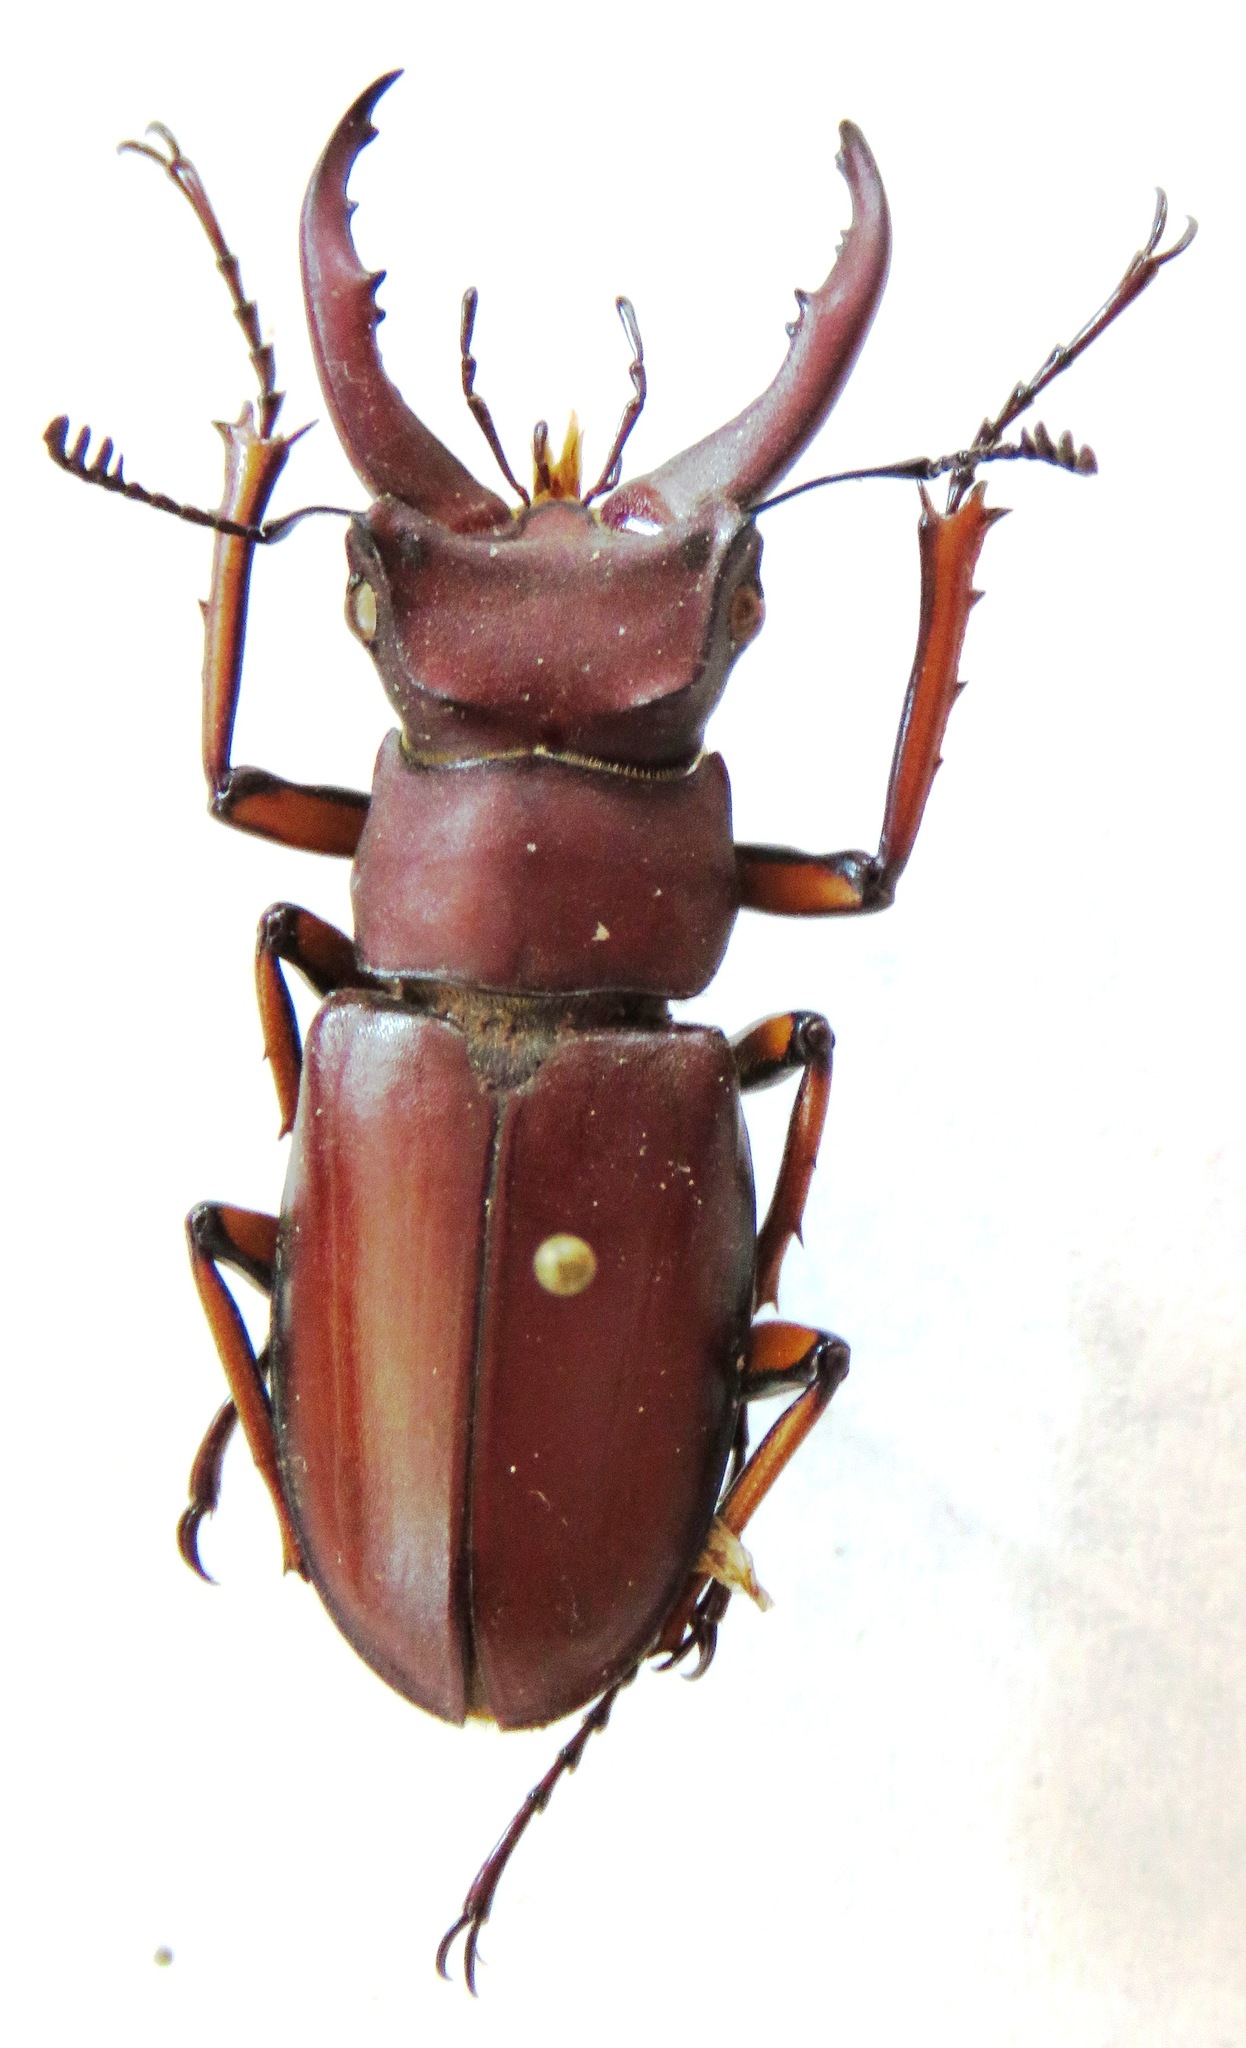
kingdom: Animalia
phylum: Arthropoda
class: Insecta
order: Coleoptera
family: Lucanidae
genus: Lucanus
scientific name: Lucanus marazziorum
